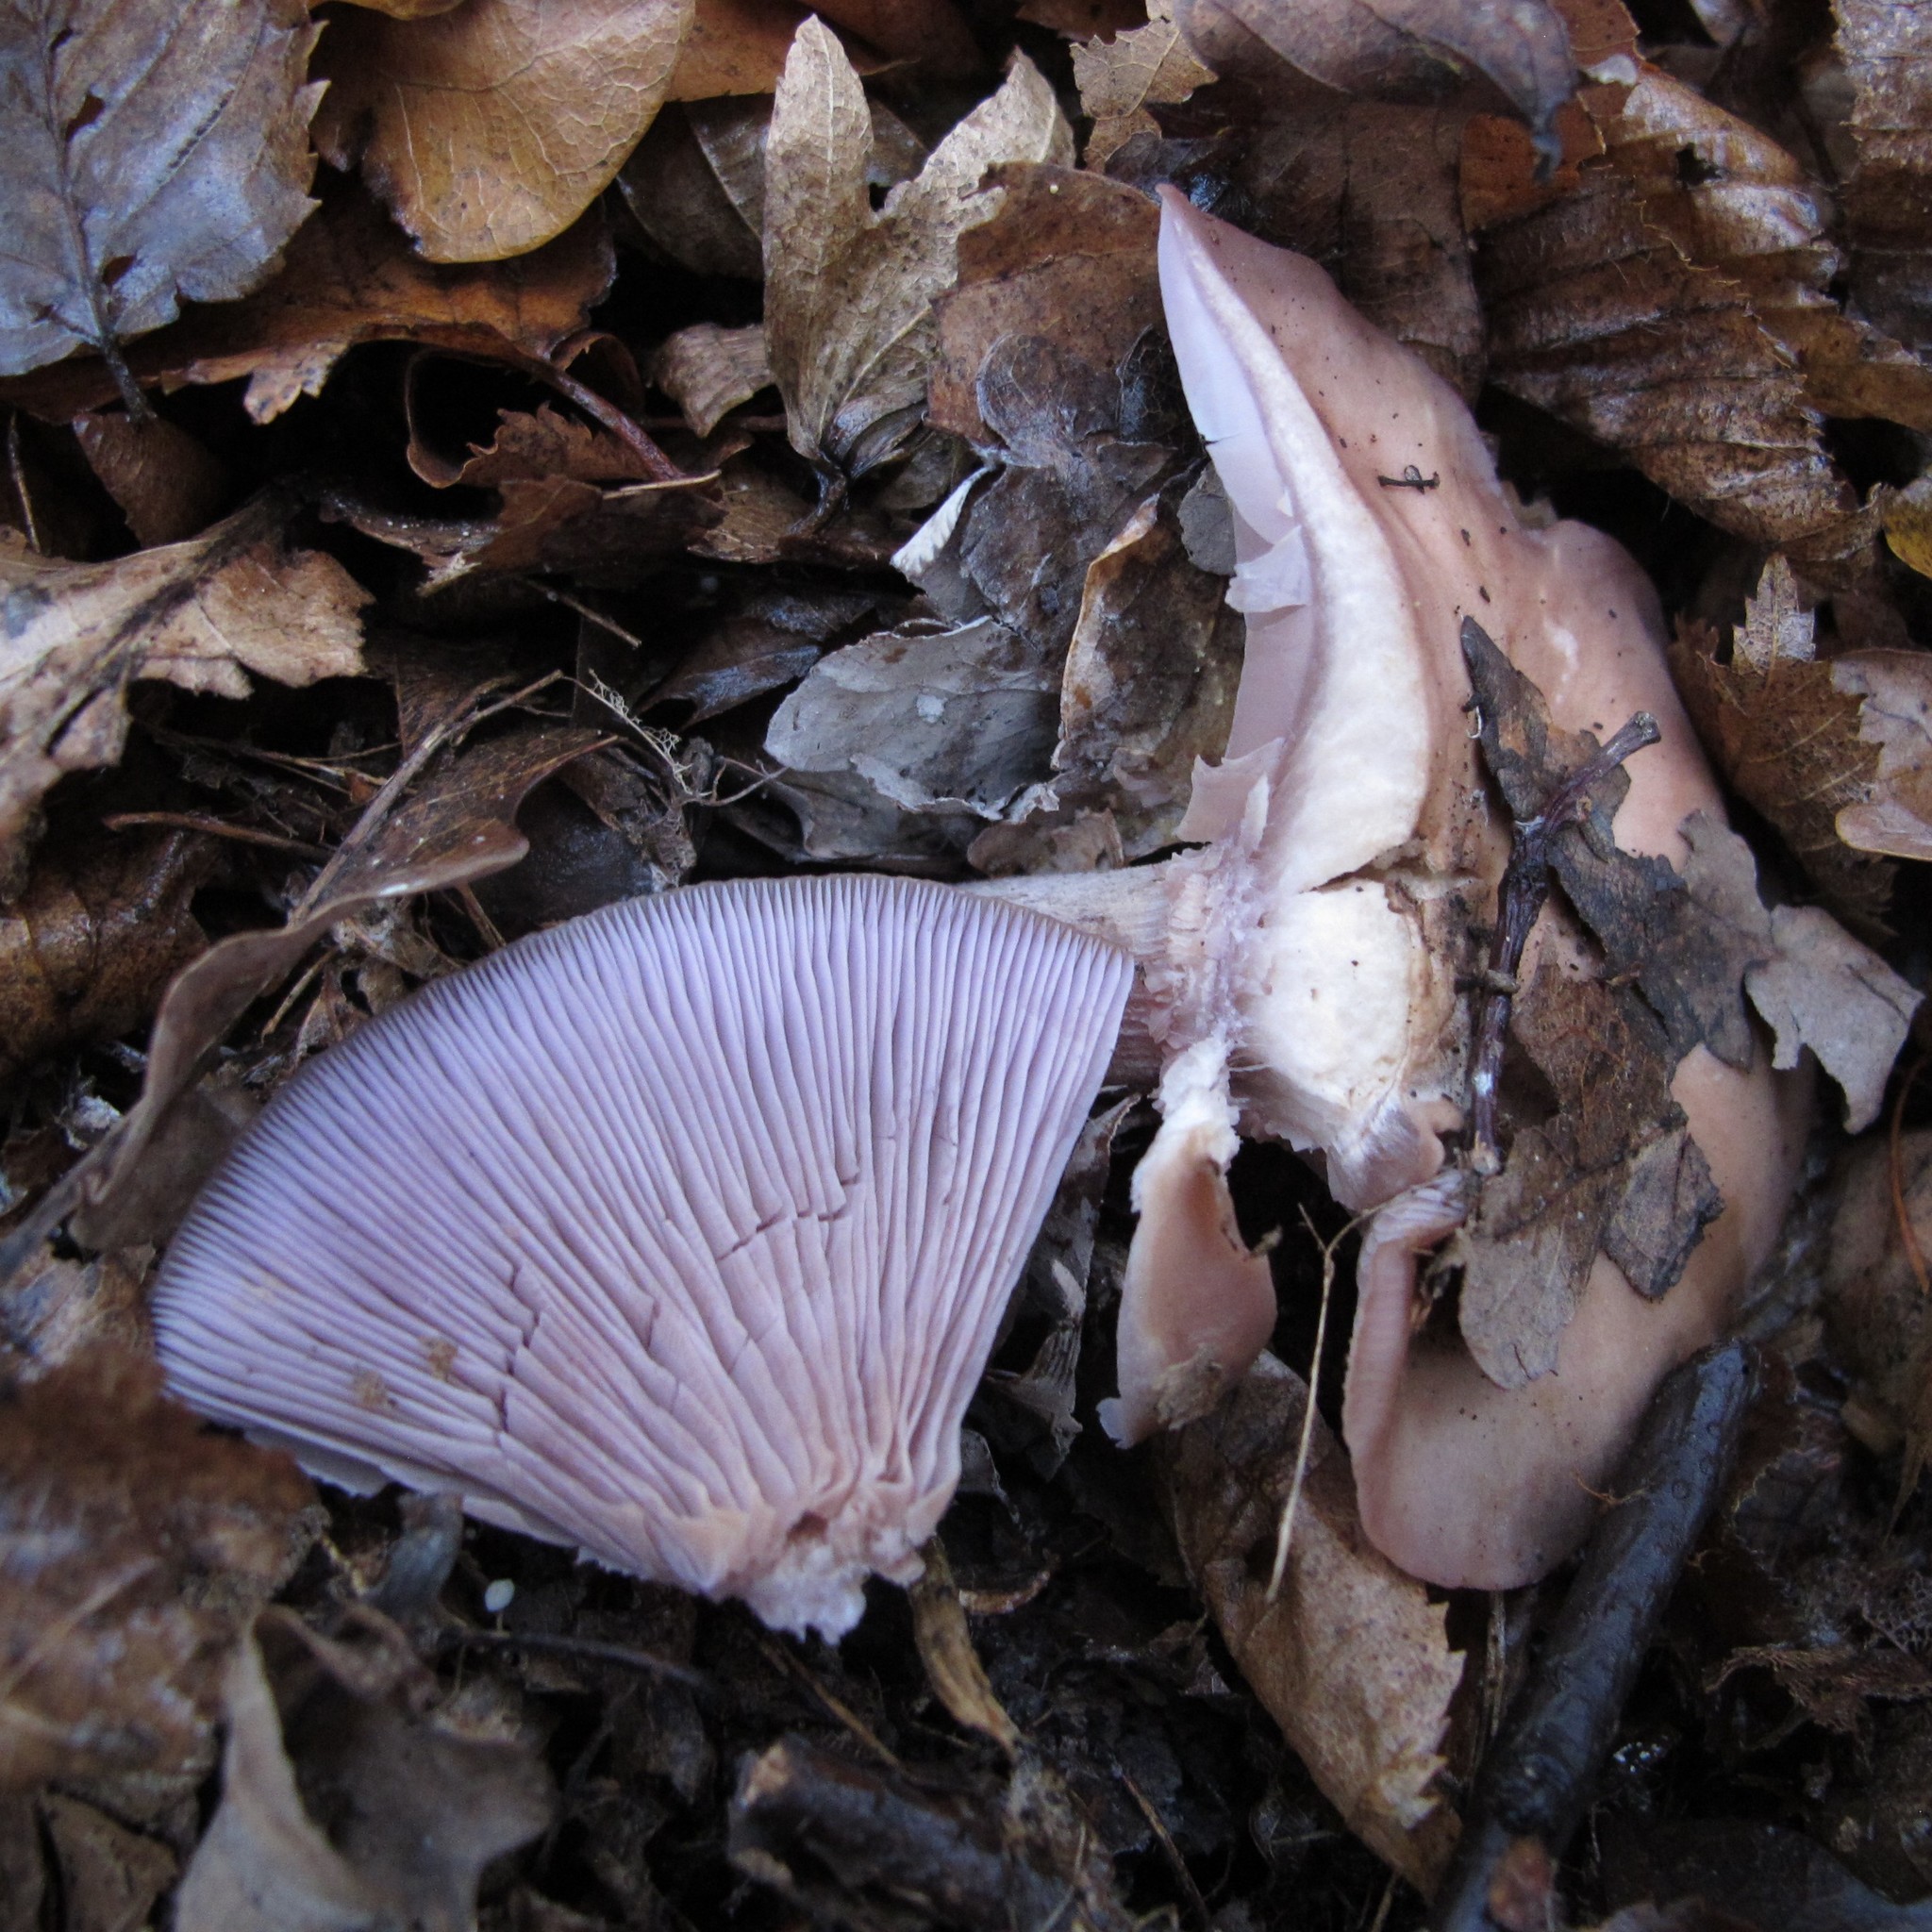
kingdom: Fungi
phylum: Basidiomycota
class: Agaricomycetes
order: Agaricales
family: Tricholomataceae
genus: Collybia
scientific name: Collybia
